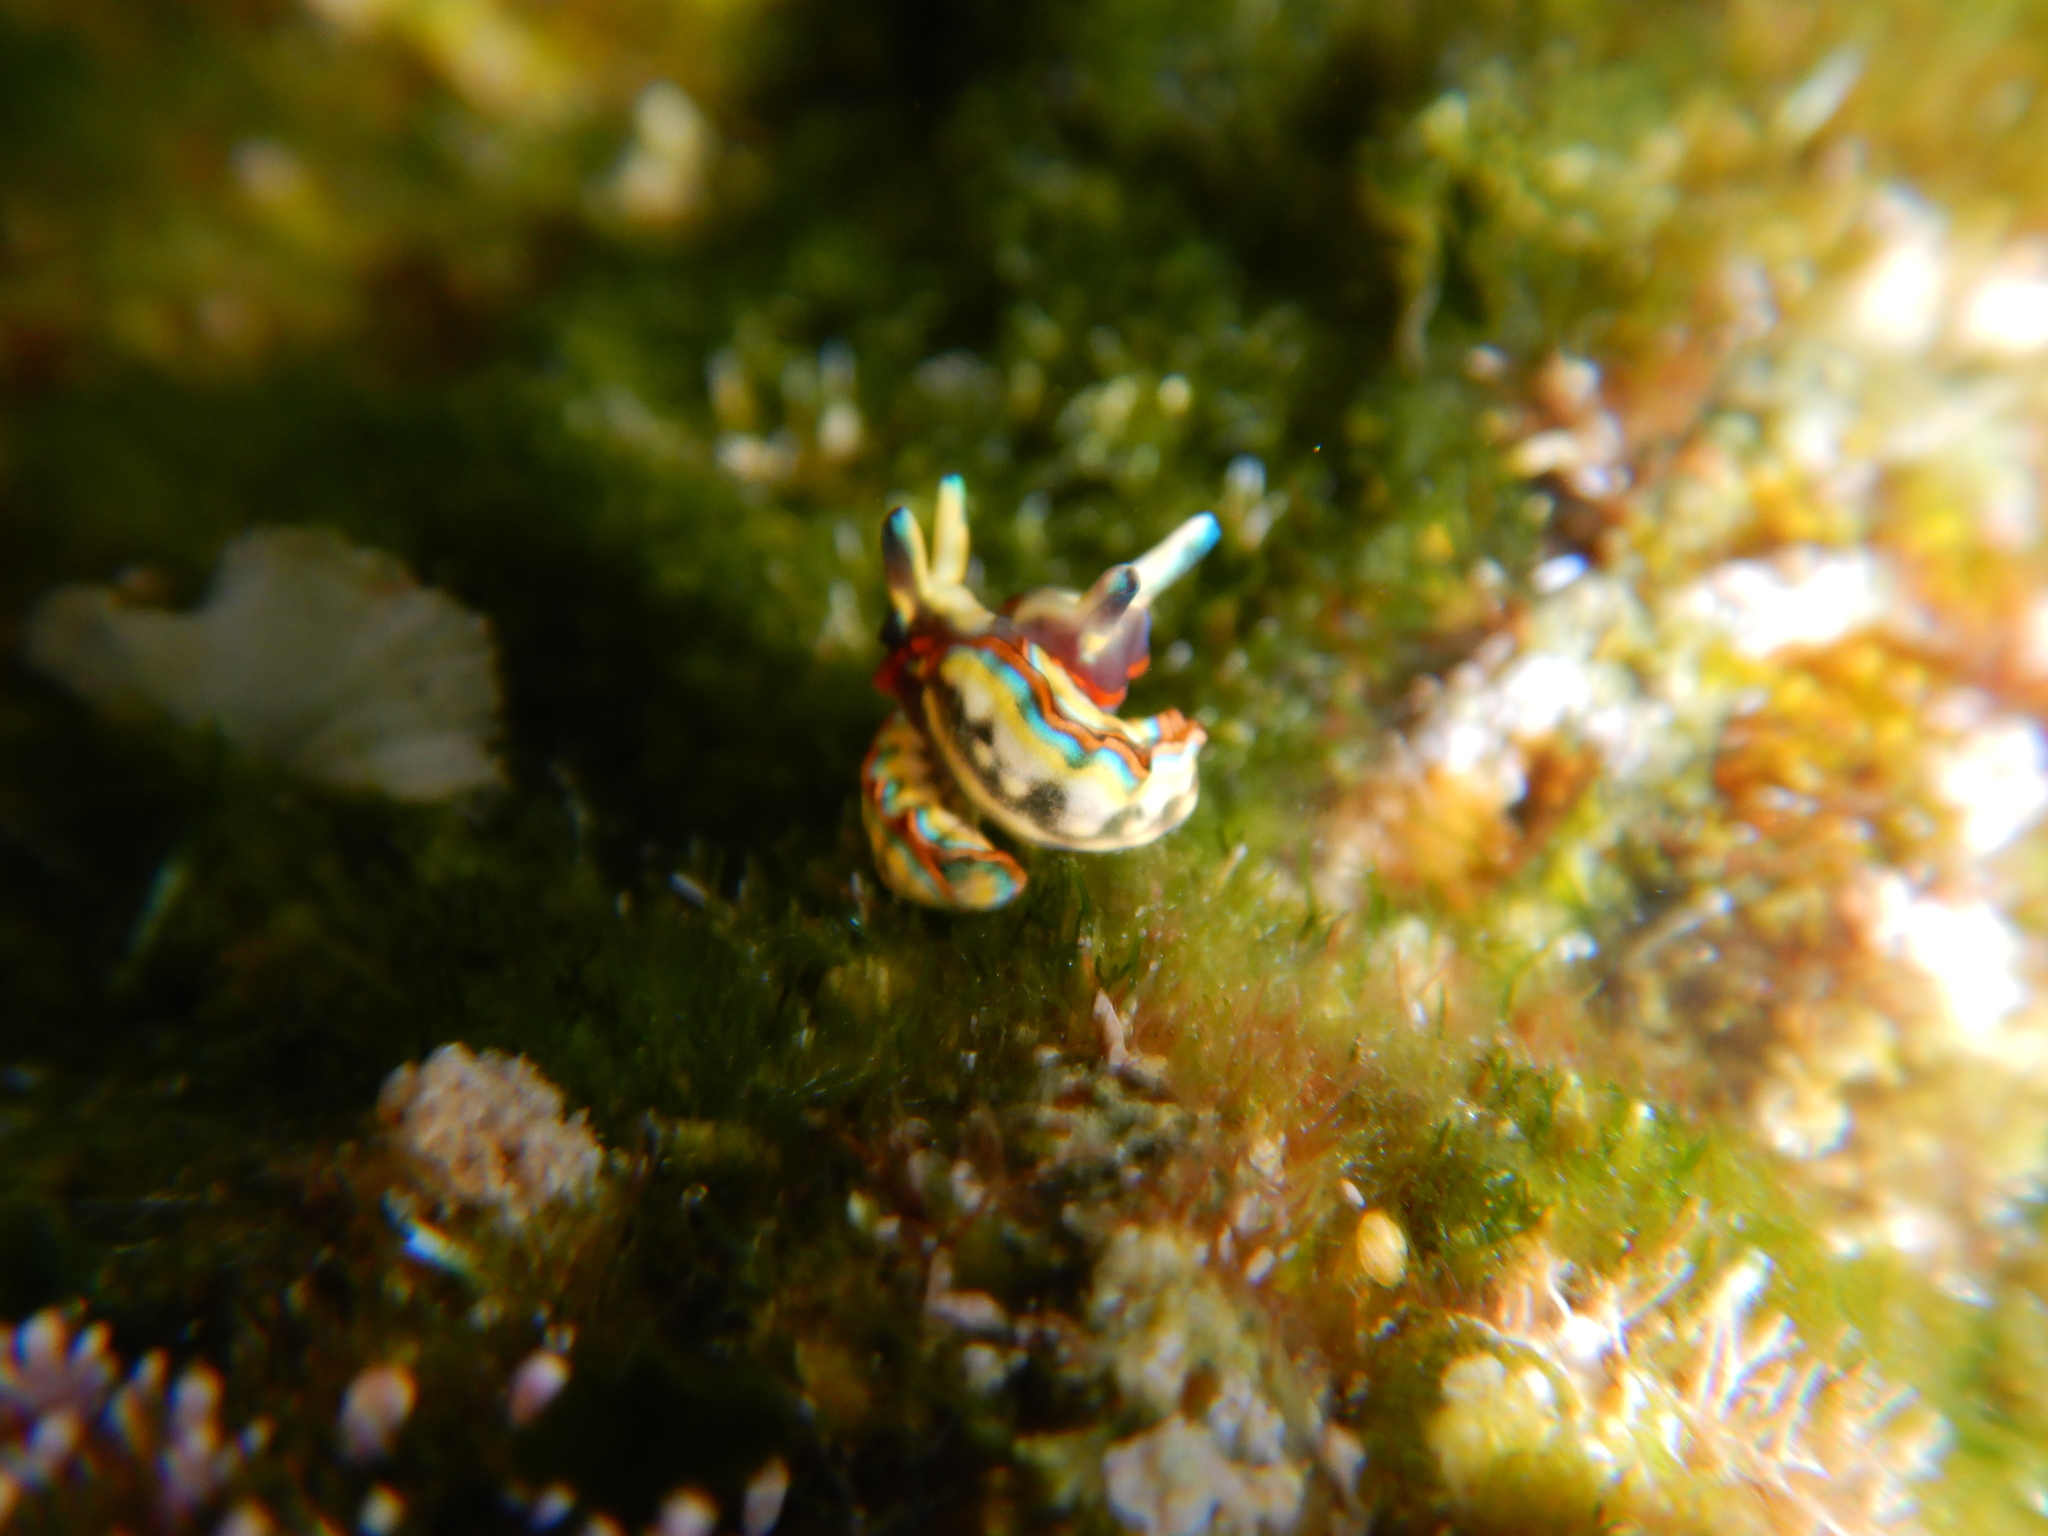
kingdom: Animalia
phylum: Mollusca
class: Gastropoda
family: Plakobranchidae
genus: Thuridilla
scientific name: Thuridilla hopei
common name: Splendid elysia
